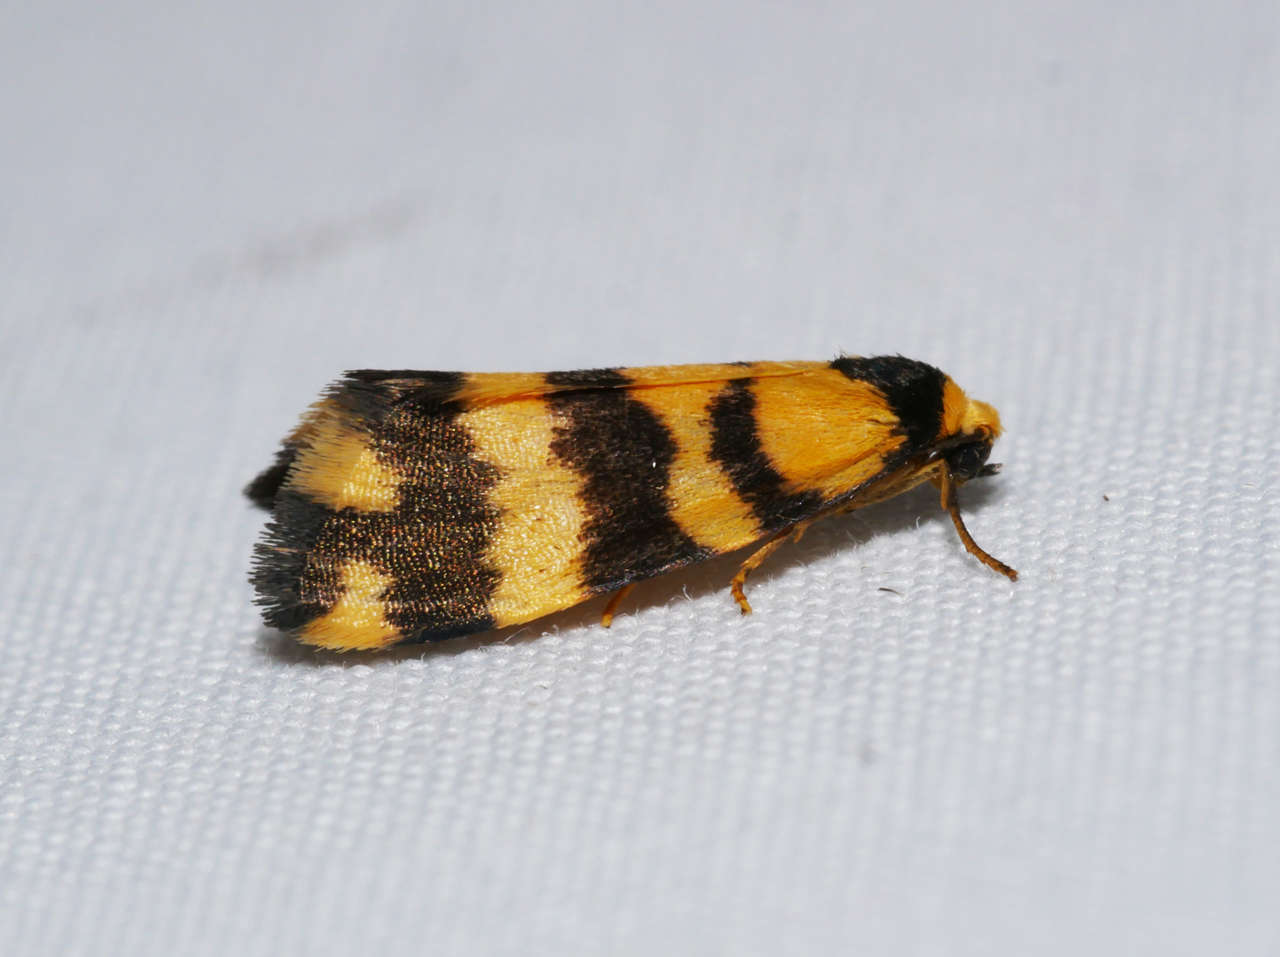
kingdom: Animalia
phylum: Arthropoda
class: Insecta
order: Lepidoptera
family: Erebidae
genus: Thallarcha
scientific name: Thallarcha partita
